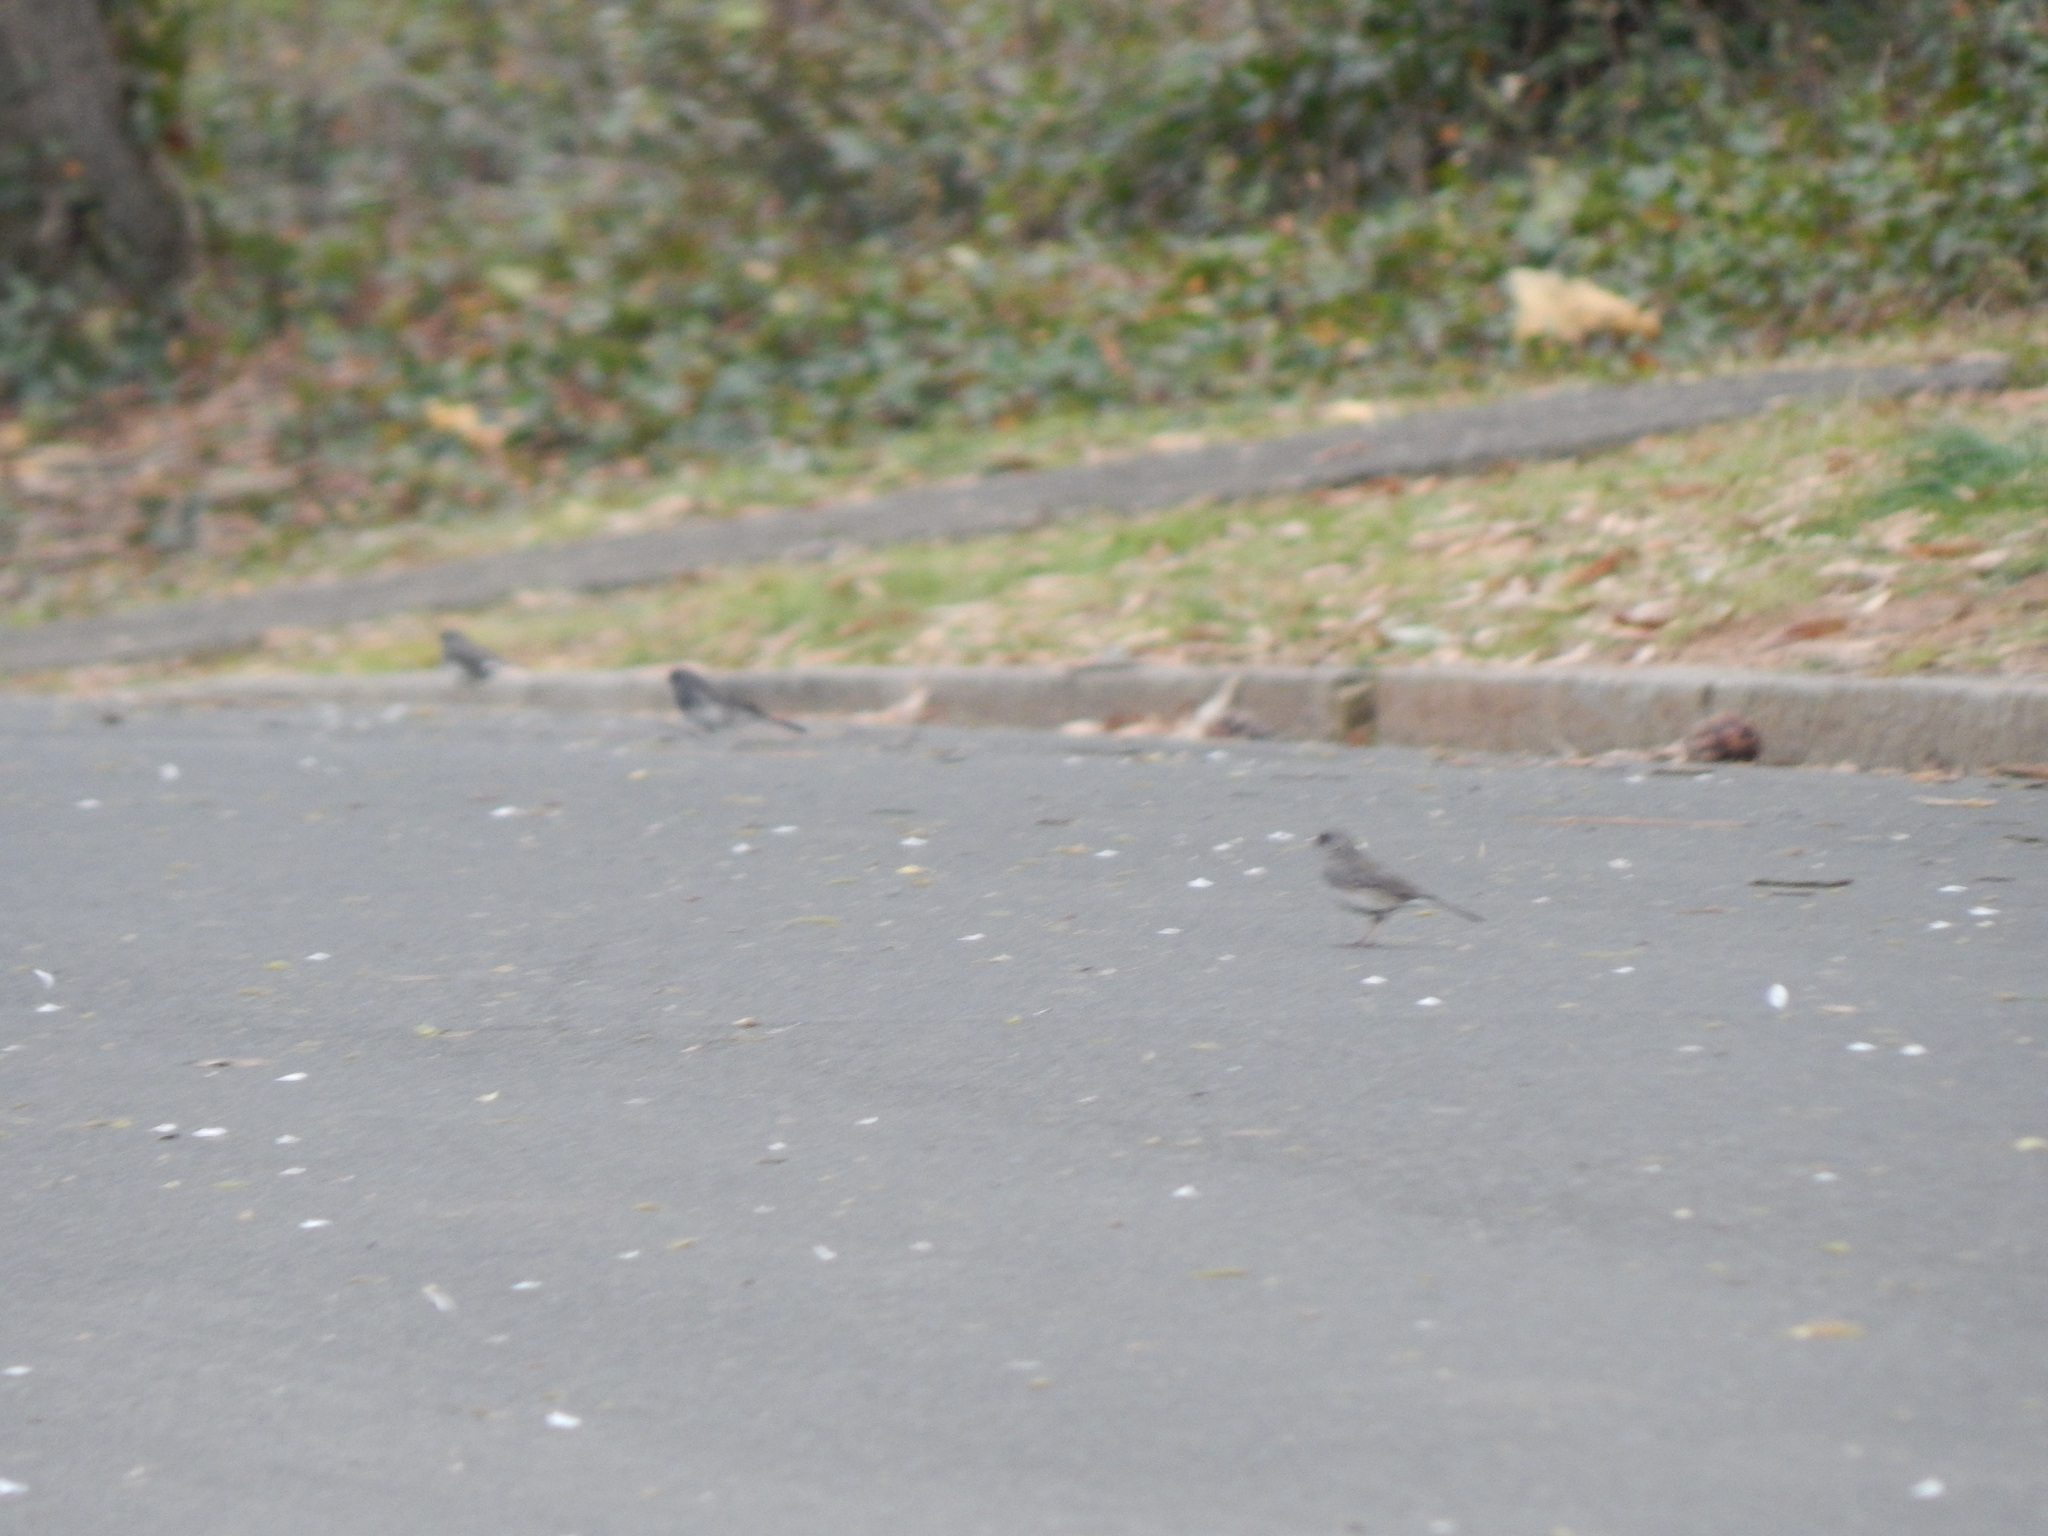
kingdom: Animalia
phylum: Chordata
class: Aves
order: Passeriformes
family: Passerellidae
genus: Junco
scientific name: Junco hyemalis
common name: Dark-eyed junco
